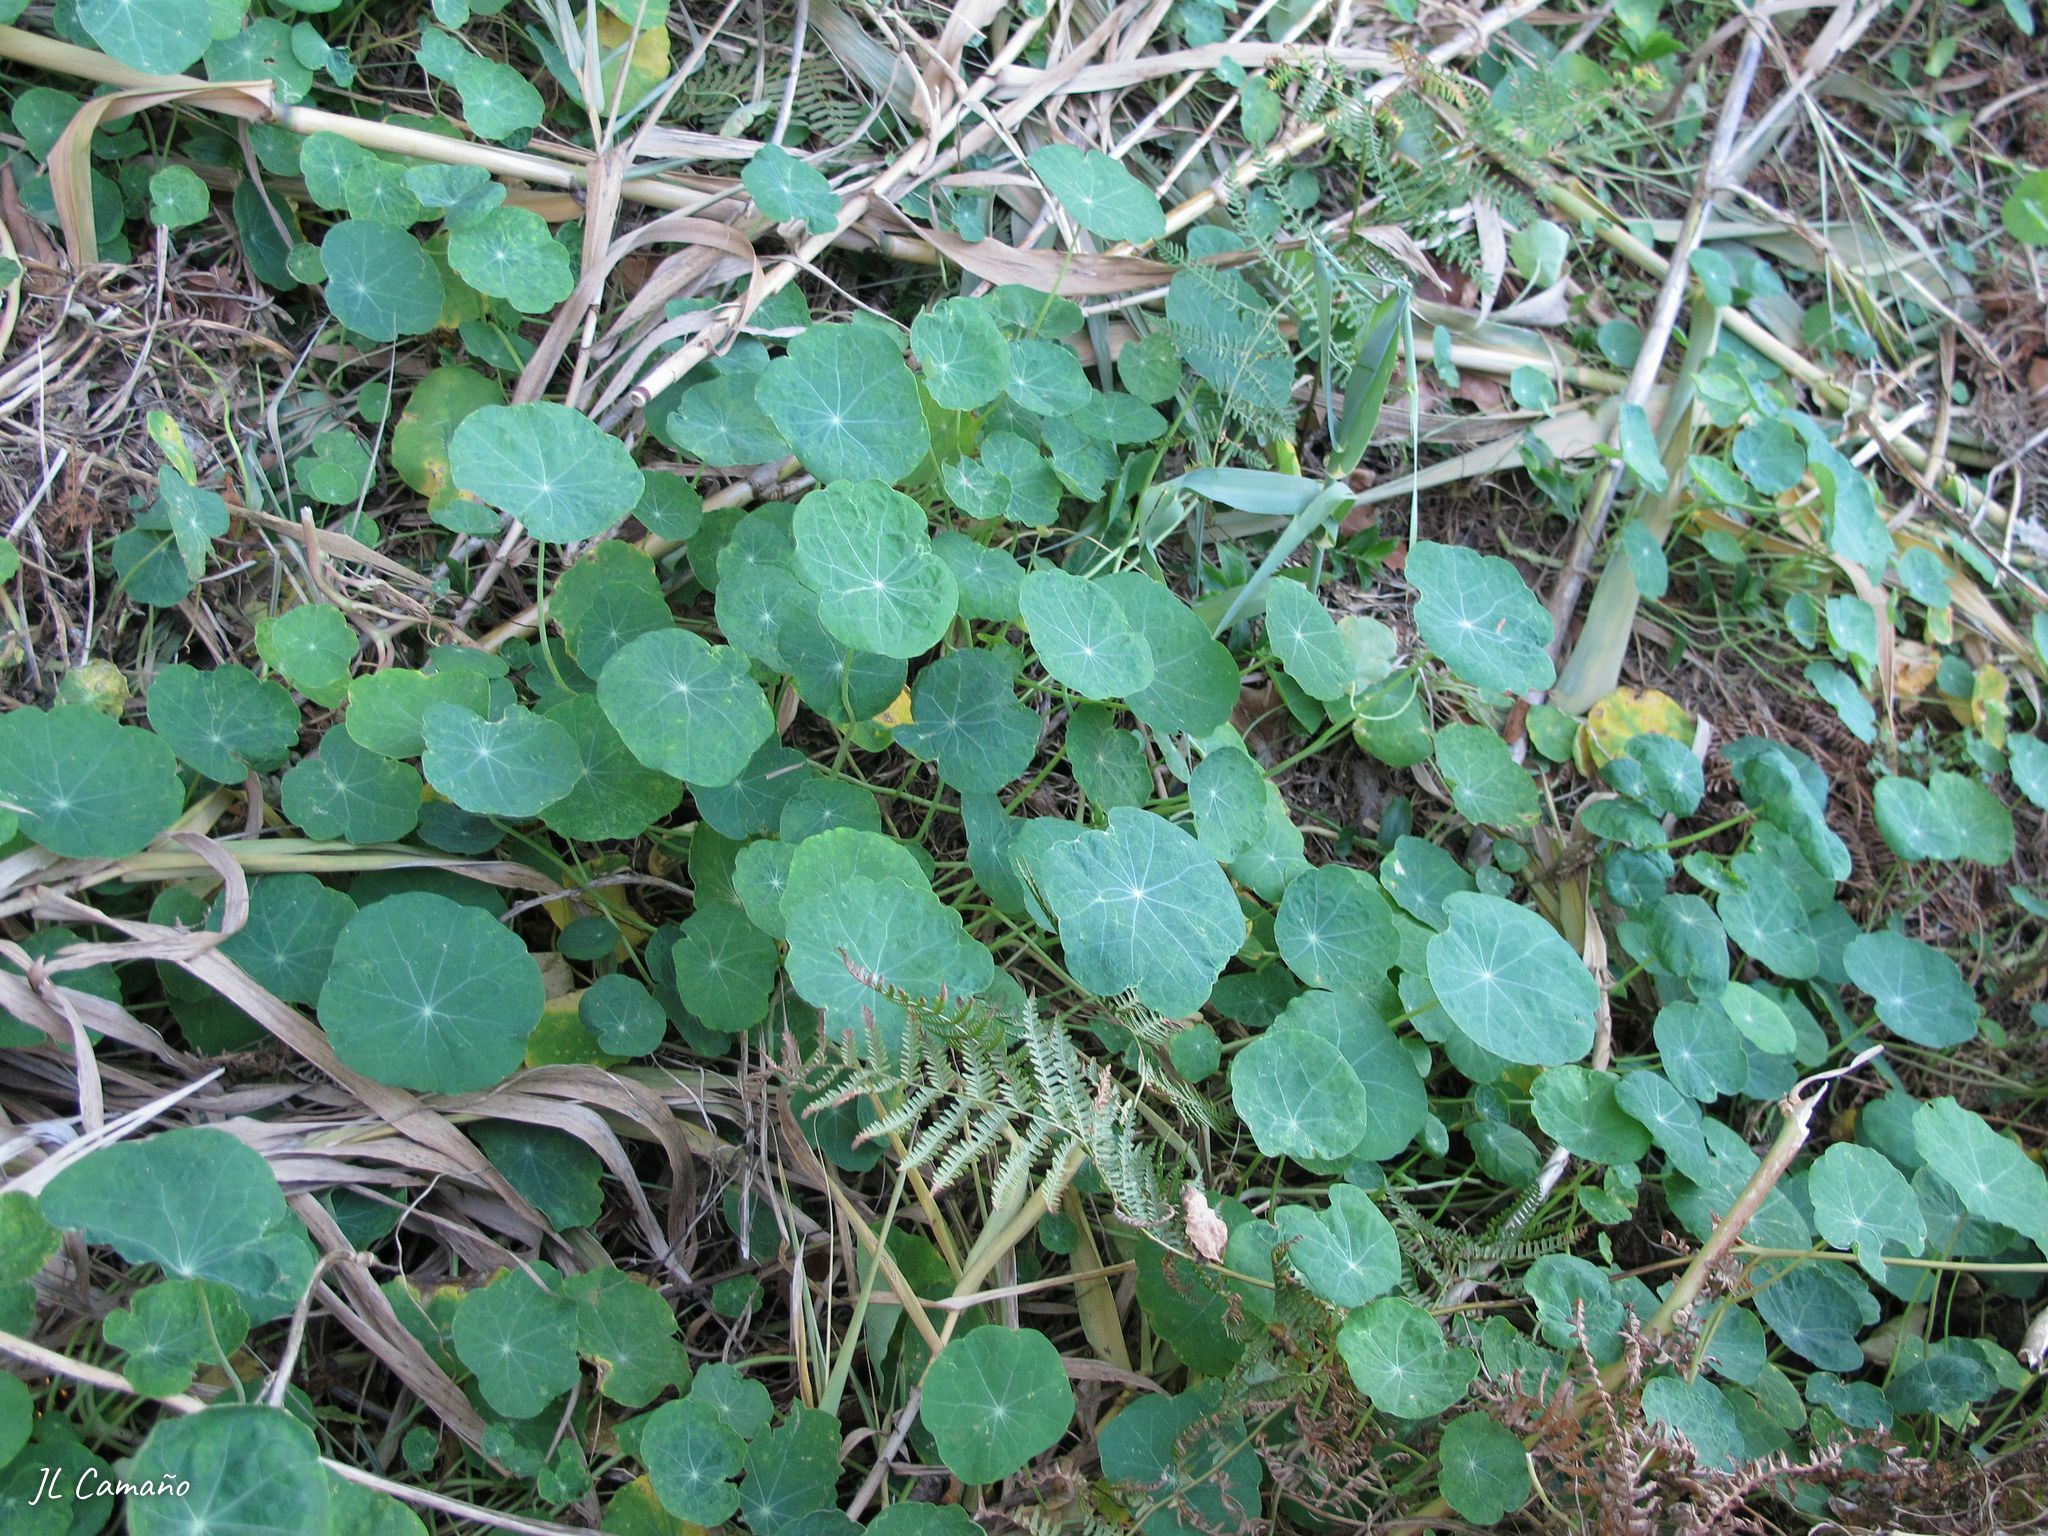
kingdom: Plantae
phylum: Tracheophyta
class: Magnoliopsida
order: Brassicales
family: Tropaeolaceae
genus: Tropaeolum
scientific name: Tropaeolum majus
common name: Nasturtium
